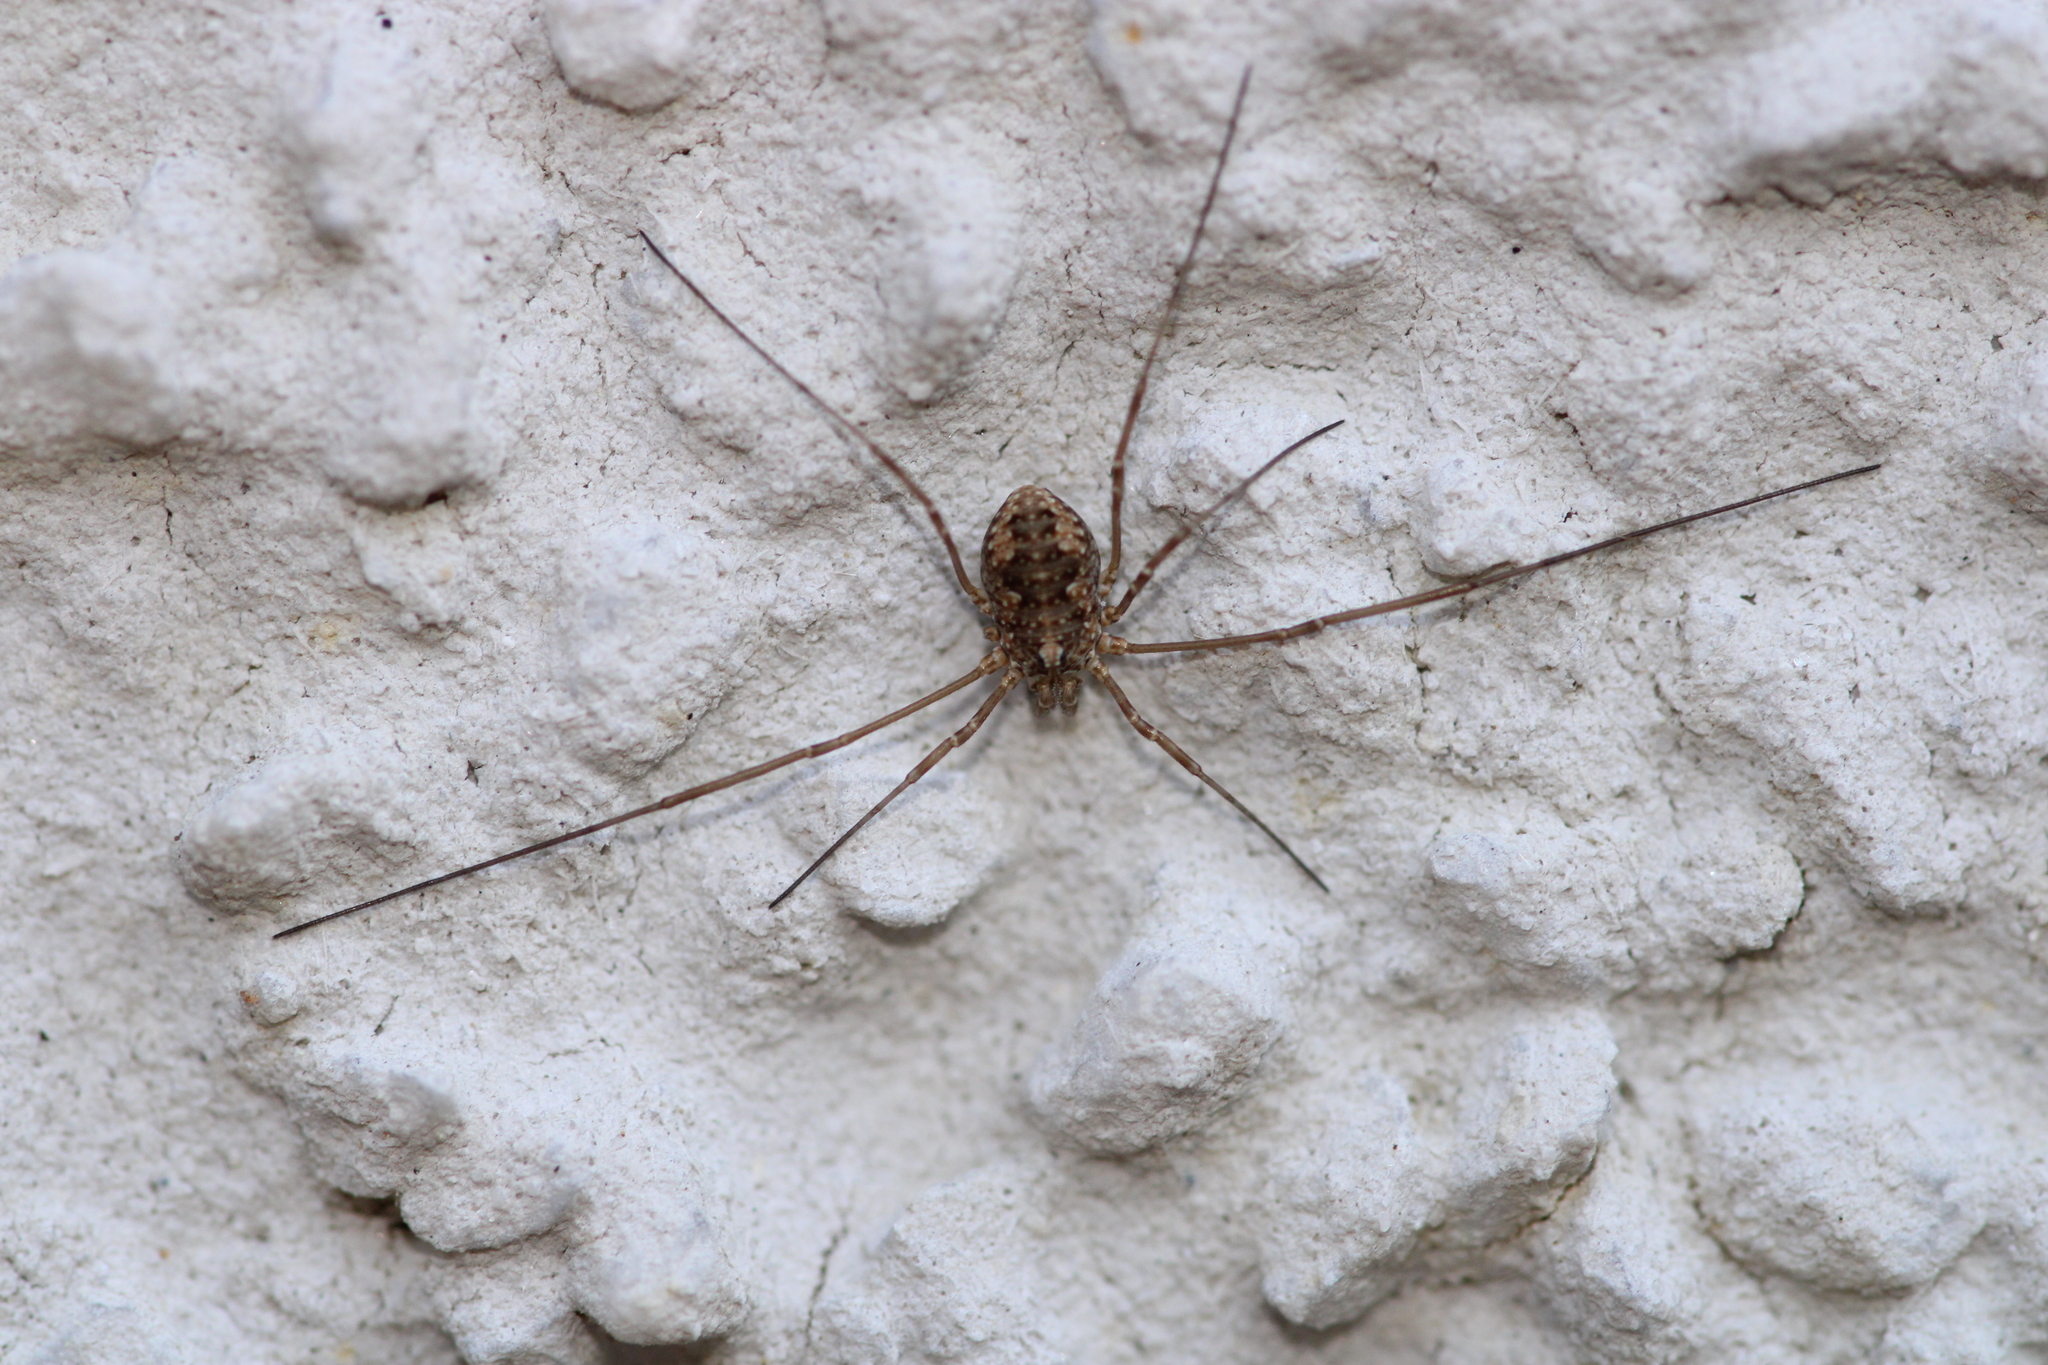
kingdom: Animalia
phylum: Arthropoda
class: Arachnida
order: Opiliones
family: Phalangiidae
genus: Phalangium
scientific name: Phalangium opilio
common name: Daddy longleg
